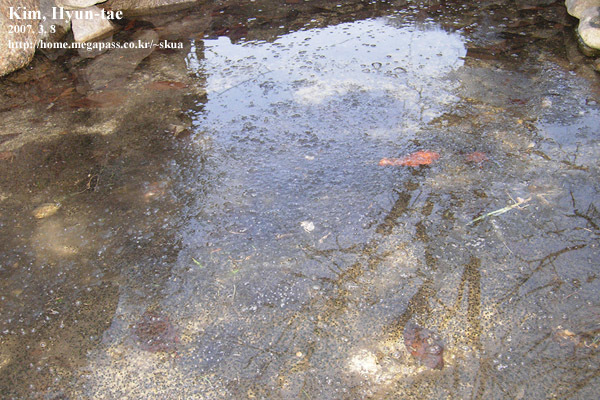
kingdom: Animalia
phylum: Chordata
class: Amphibia
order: Anura
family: Ranidae
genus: Rana
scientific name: Rana uenoi
